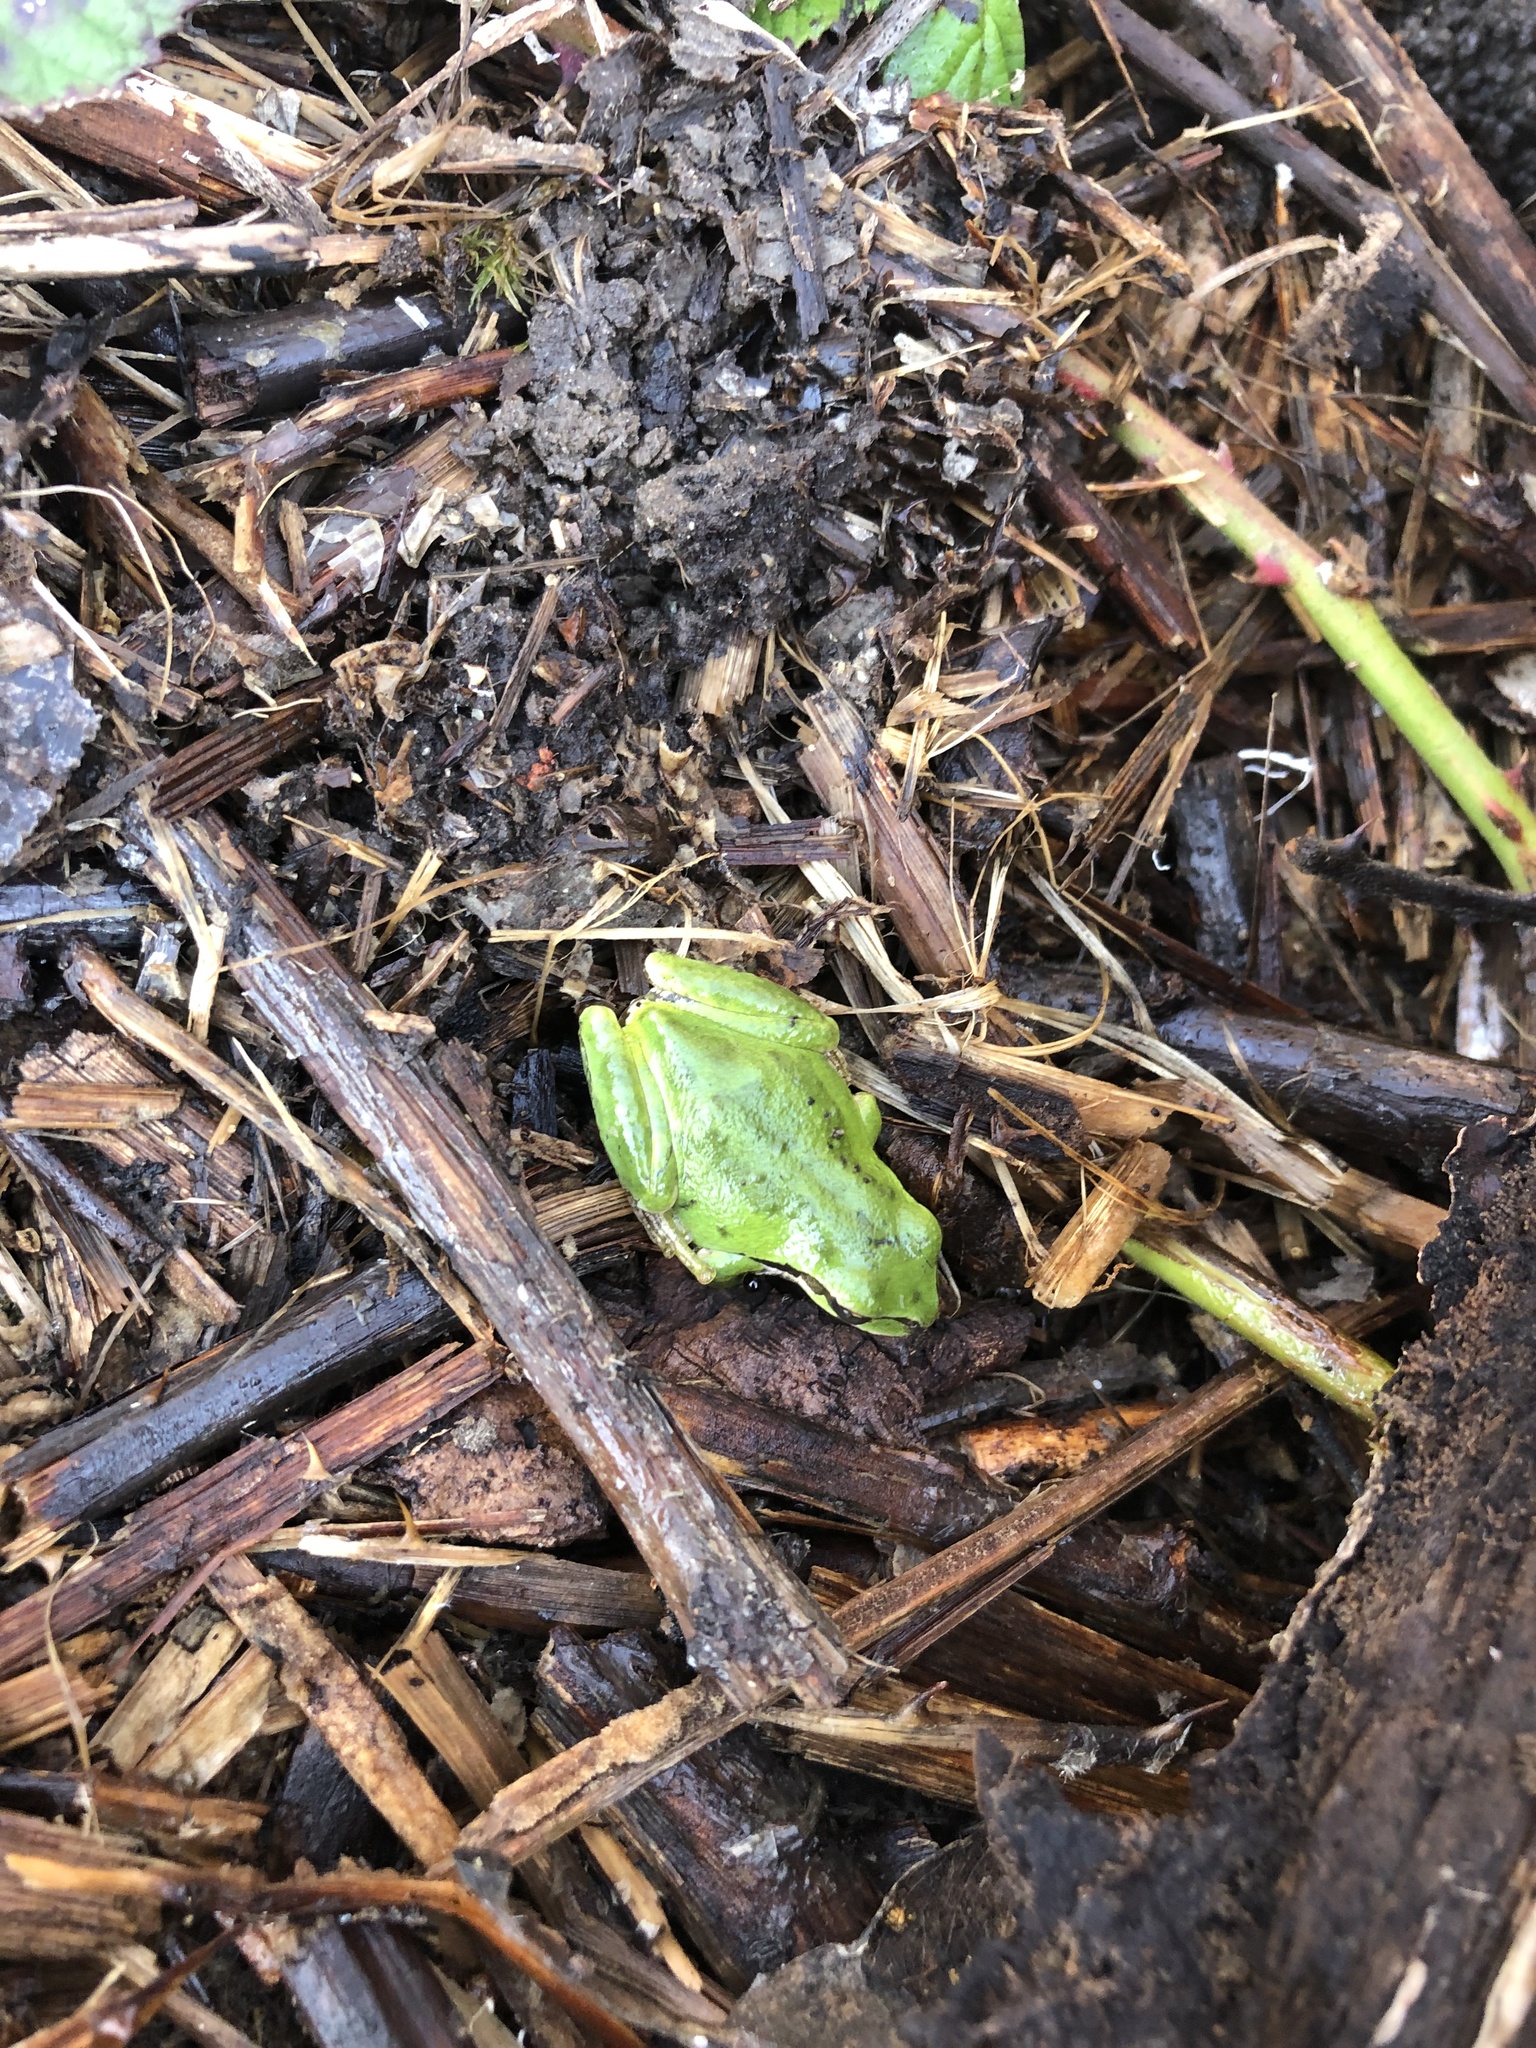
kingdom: Animalia
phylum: Chordata
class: Amphibia
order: Anura
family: Hylidae
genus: Pseudacris
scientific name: Pseudacris regilla
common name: Pacific chorus frog
